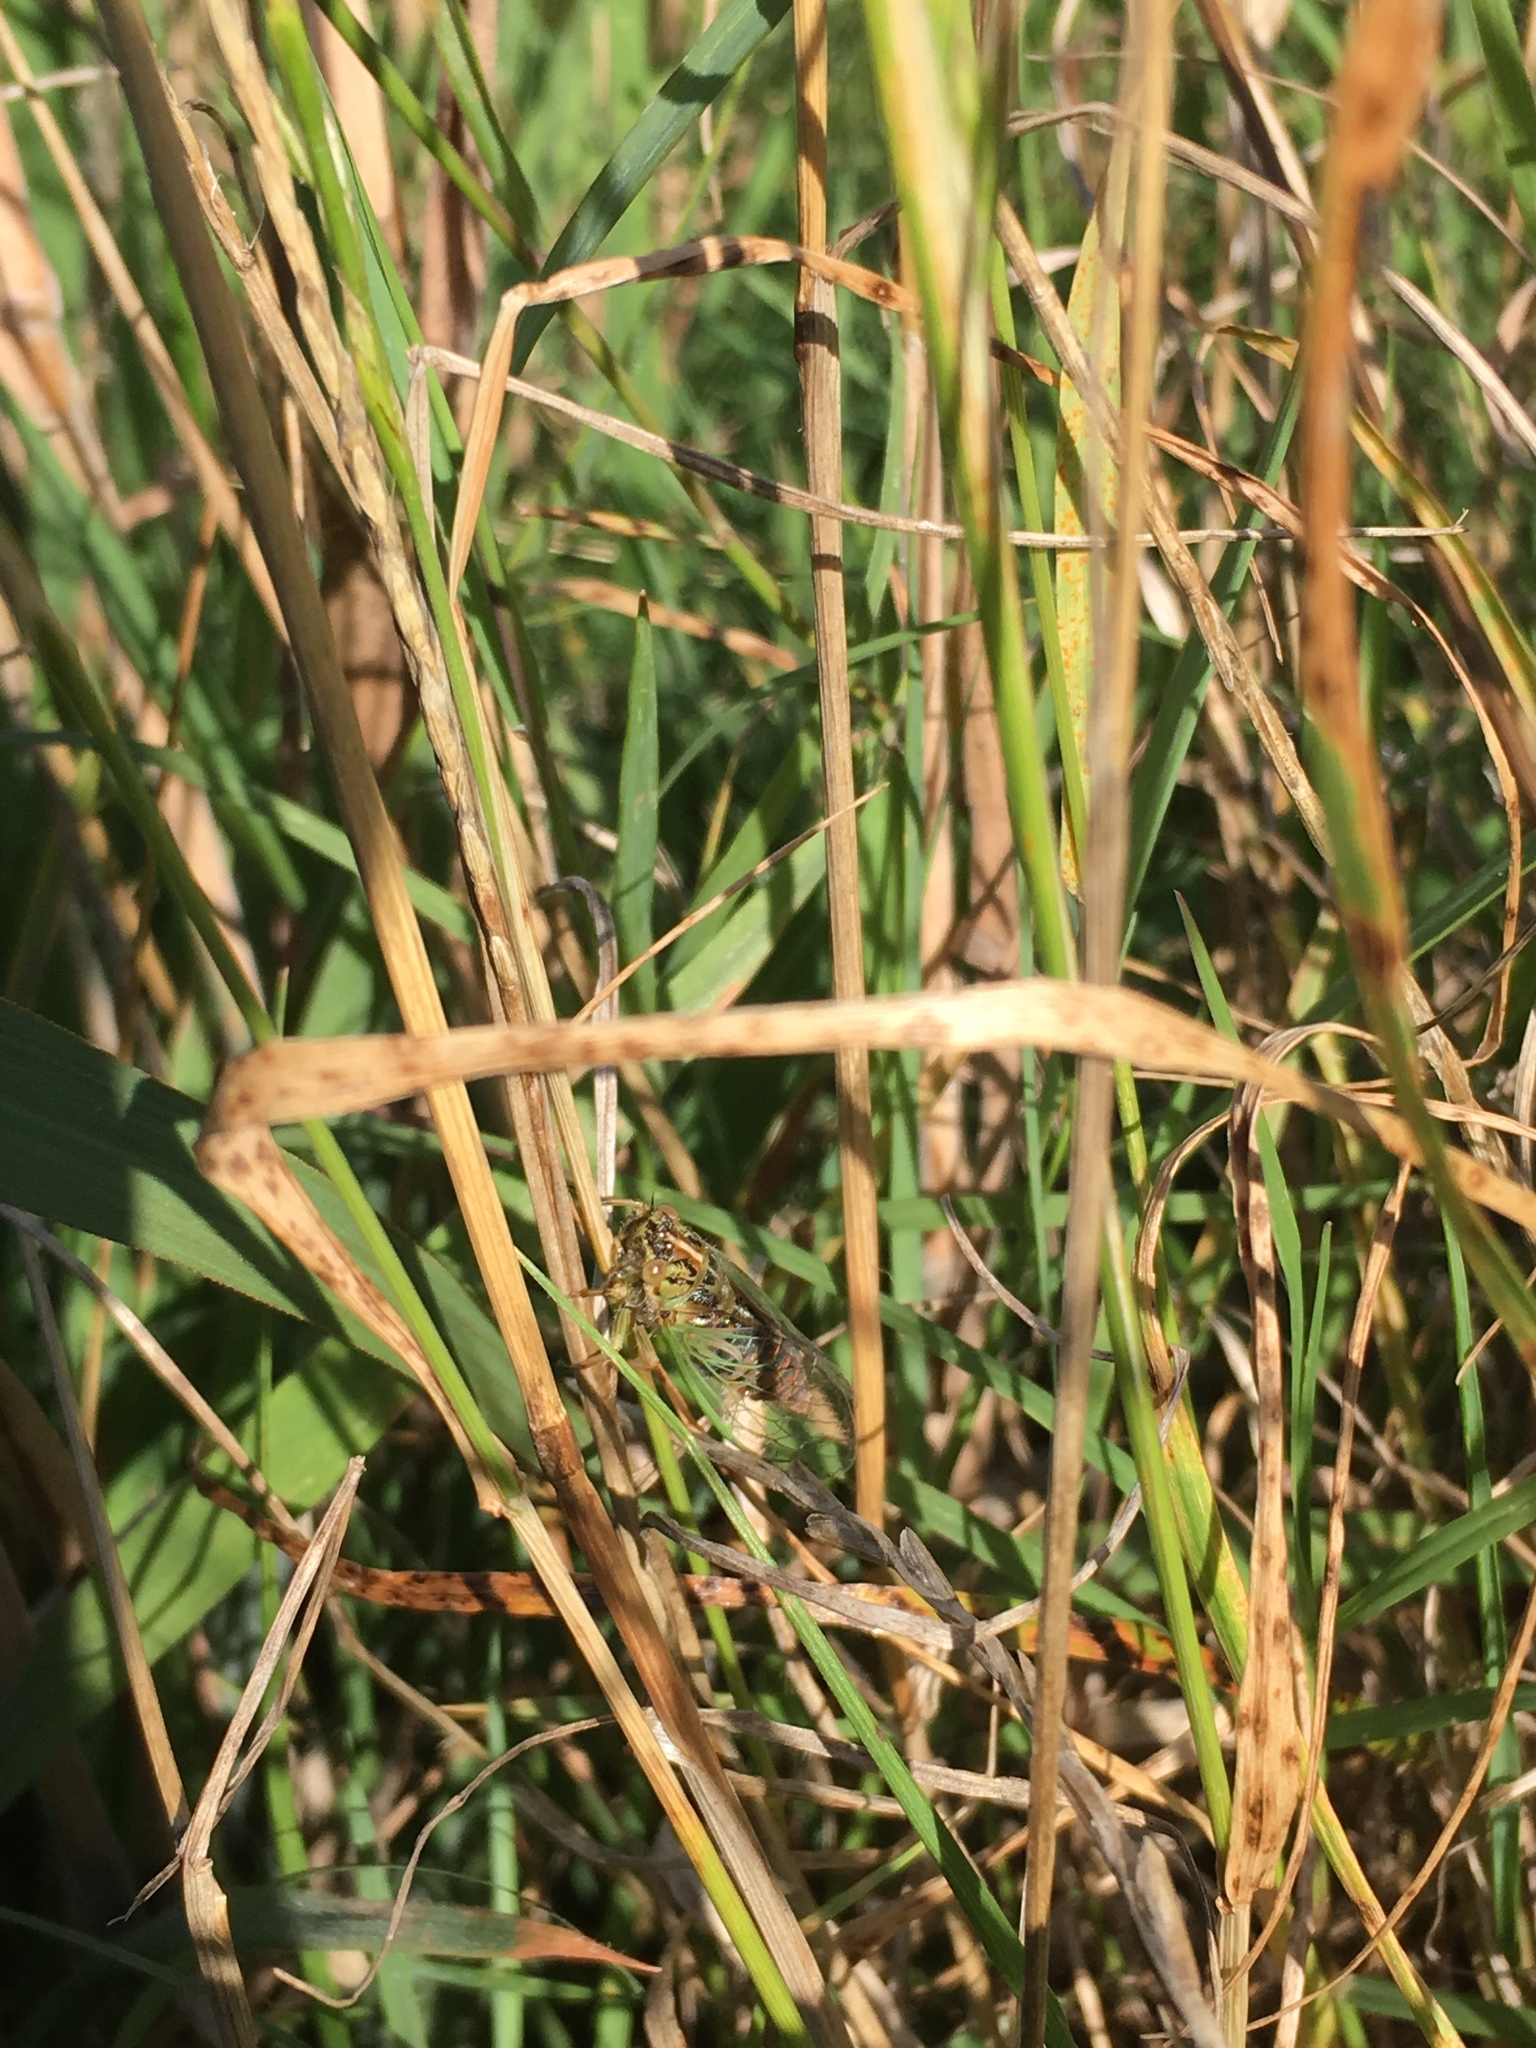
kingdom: Animalia
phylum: Arthropoda
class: Insecta
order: Hemiptera
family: Cicadidae
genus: Rhodopsalta
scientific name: Rhodopsalta cruentata
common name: Blood redtail cicada
